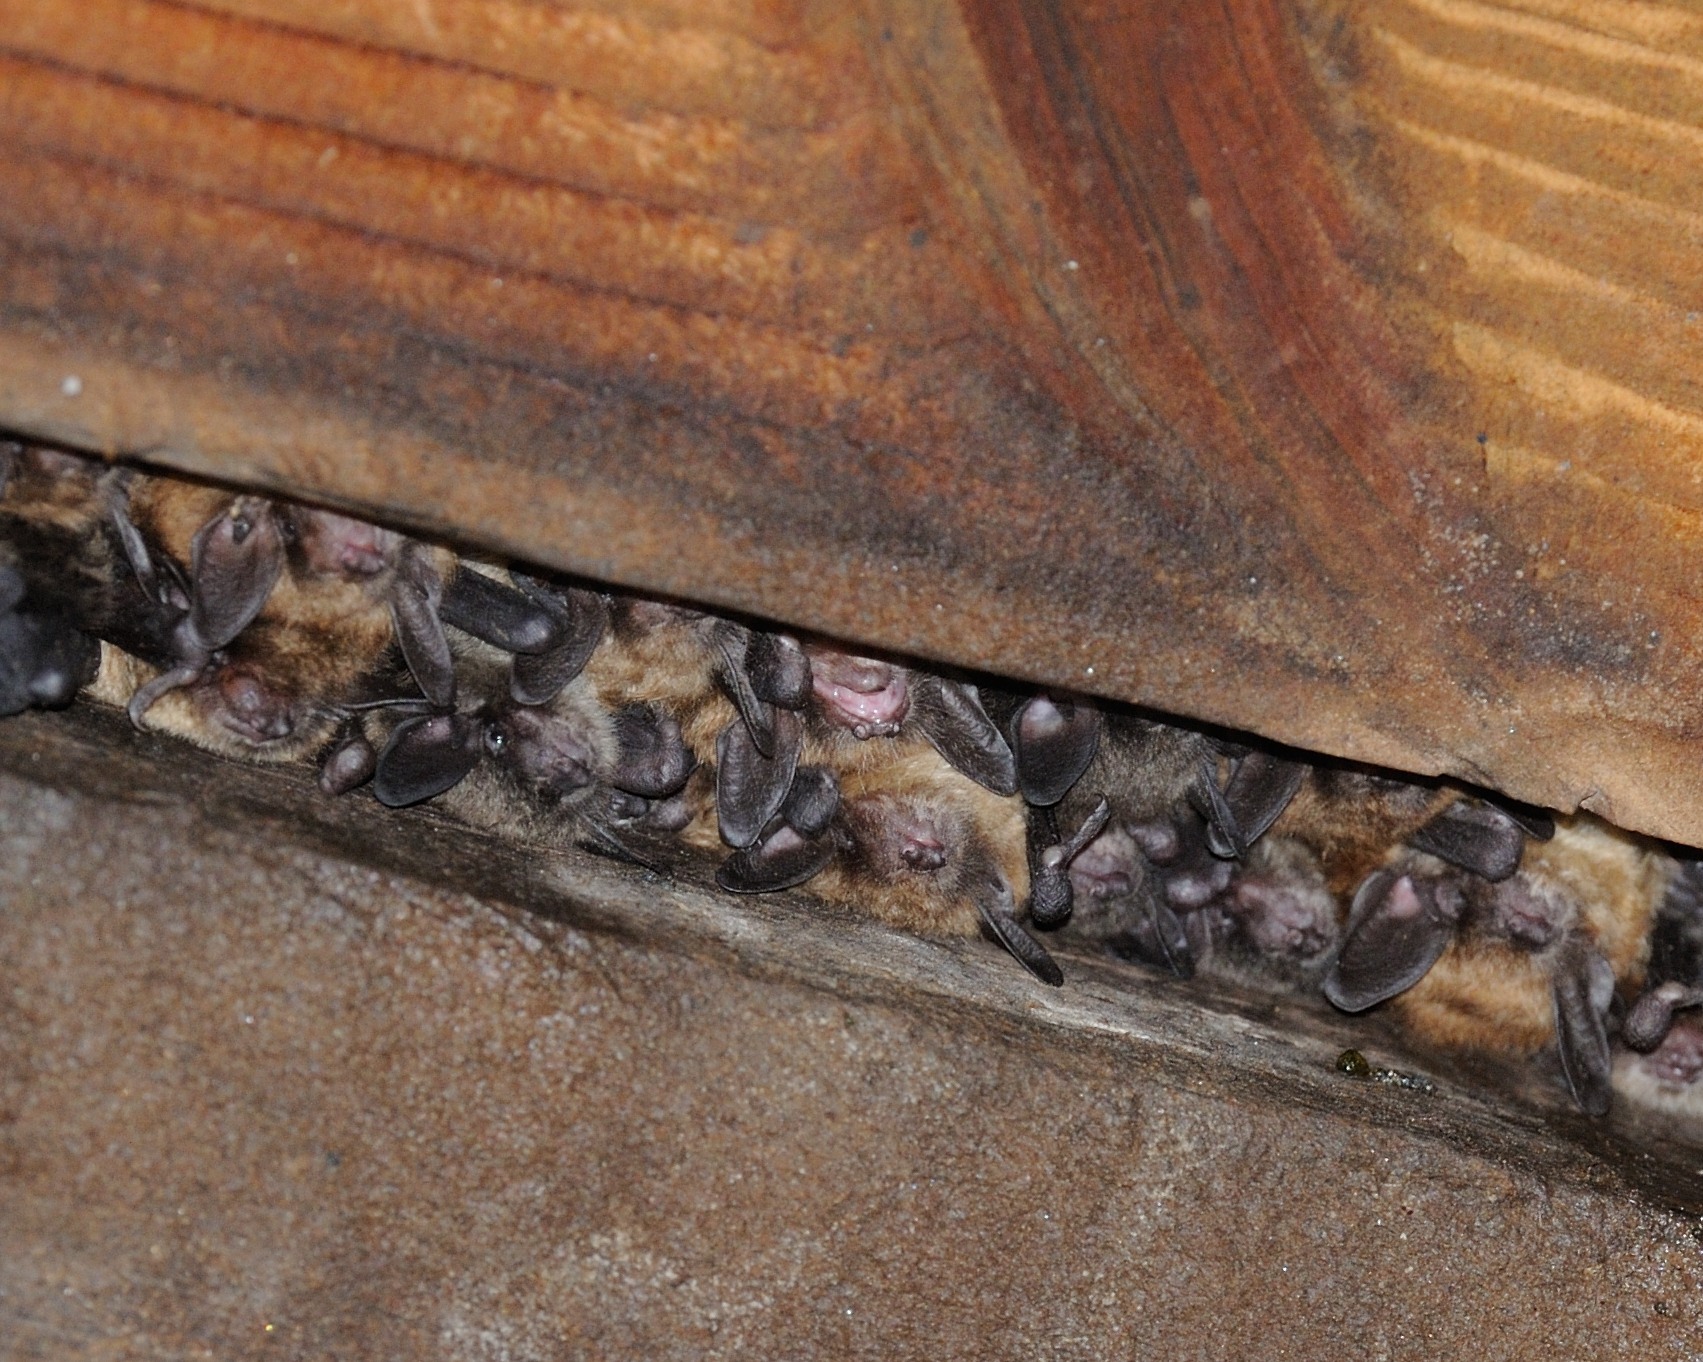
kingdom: Animalia
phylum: Chordata
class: Mammalia
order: Chiroptera
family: Vespertilionidae
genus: Myotis
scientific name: Myotis lucifugus
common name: Little brown bat
